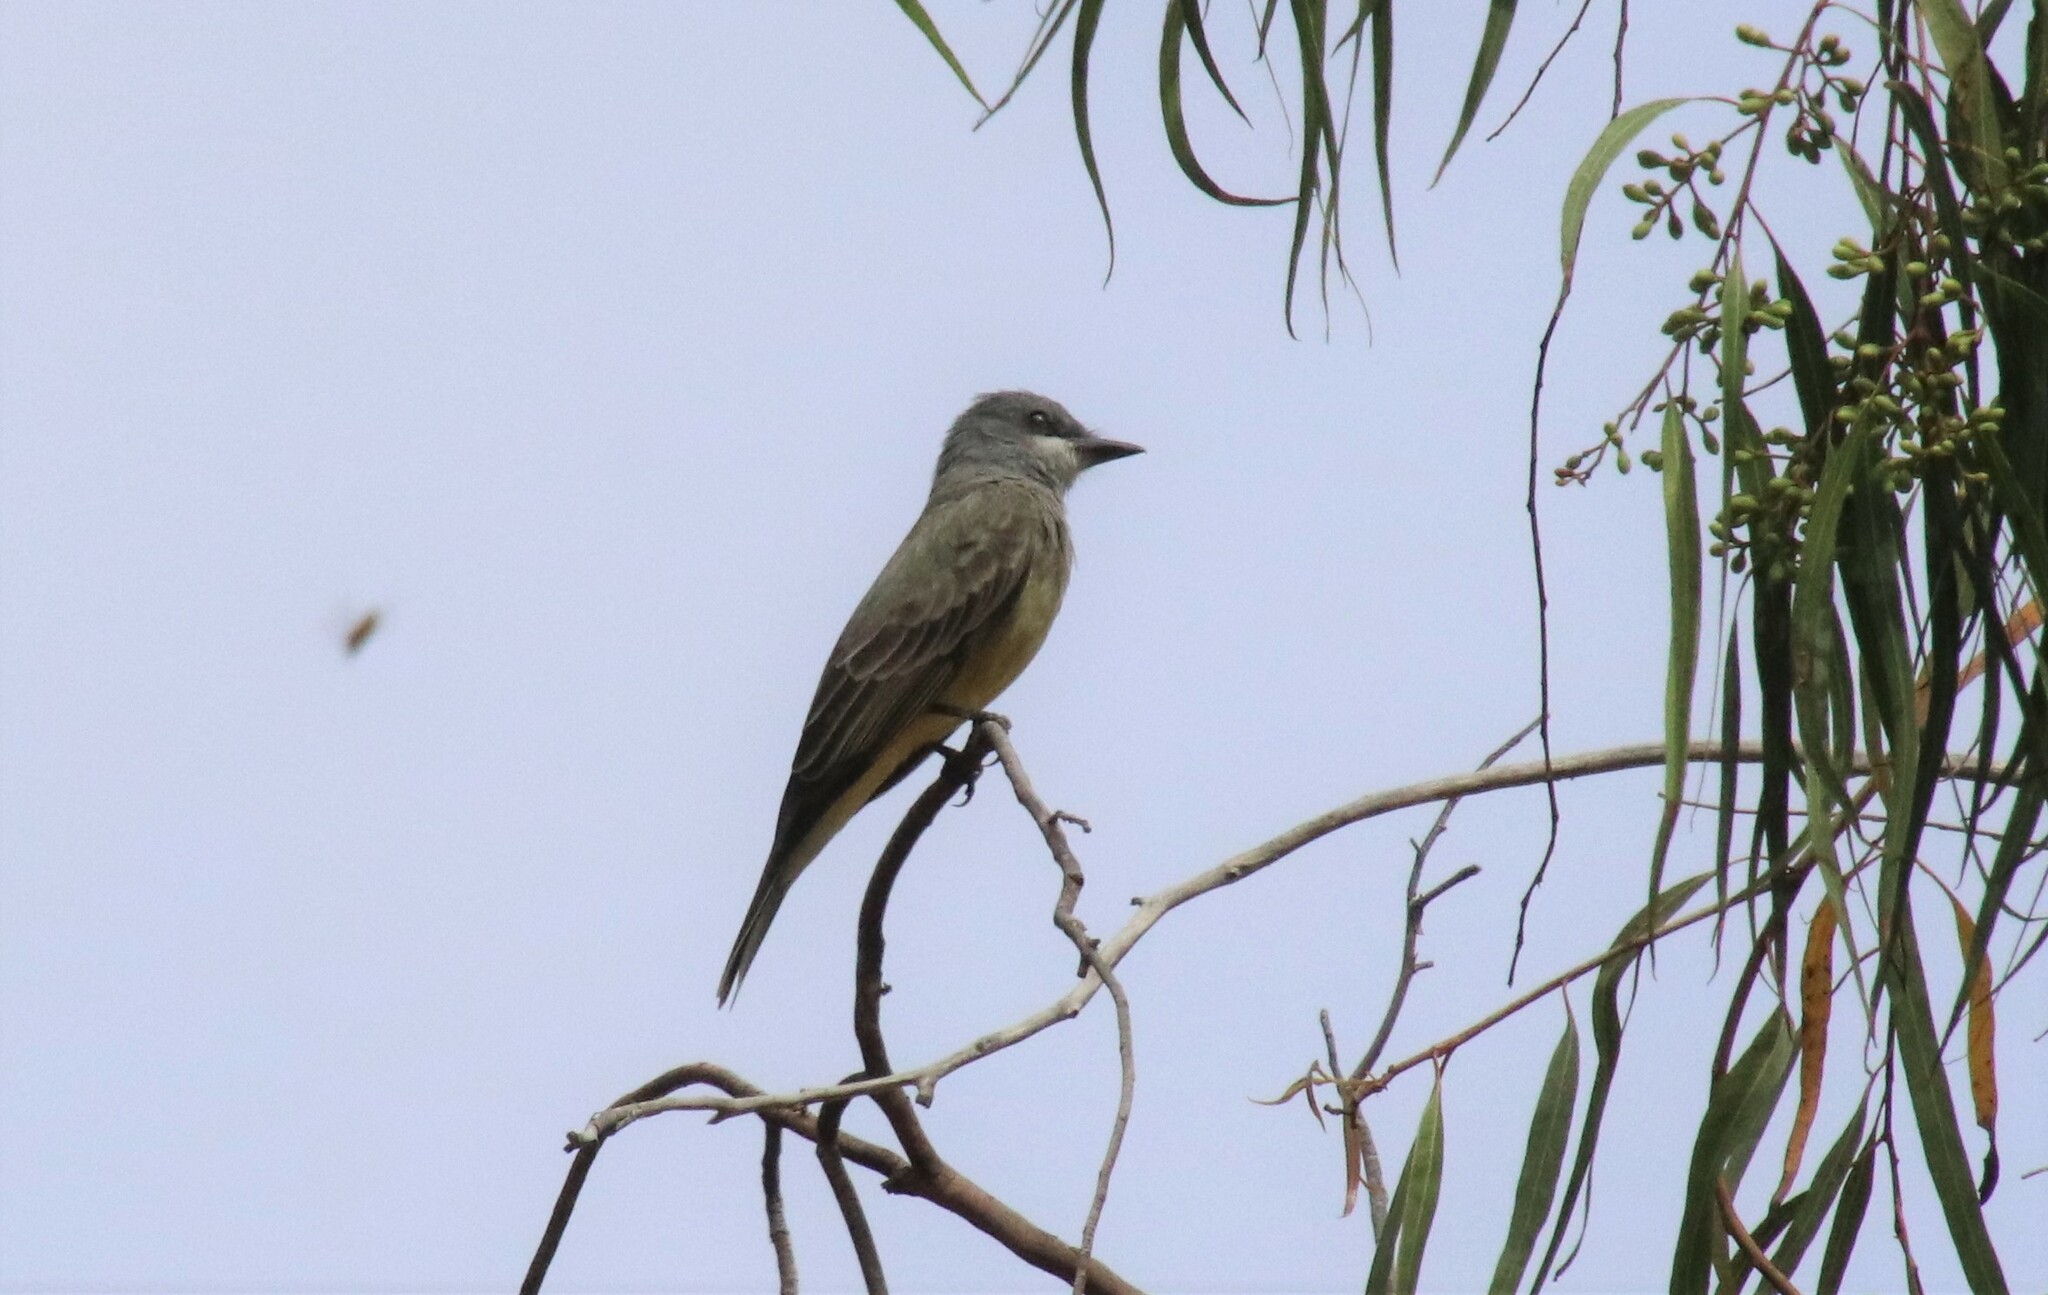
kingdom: Animalia
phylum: Chordata
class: Aves
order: Passeriformes
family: Tyrannidae
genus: Tyrannus
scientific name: Tyrannus vociferans
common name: Cassin's kingbird
